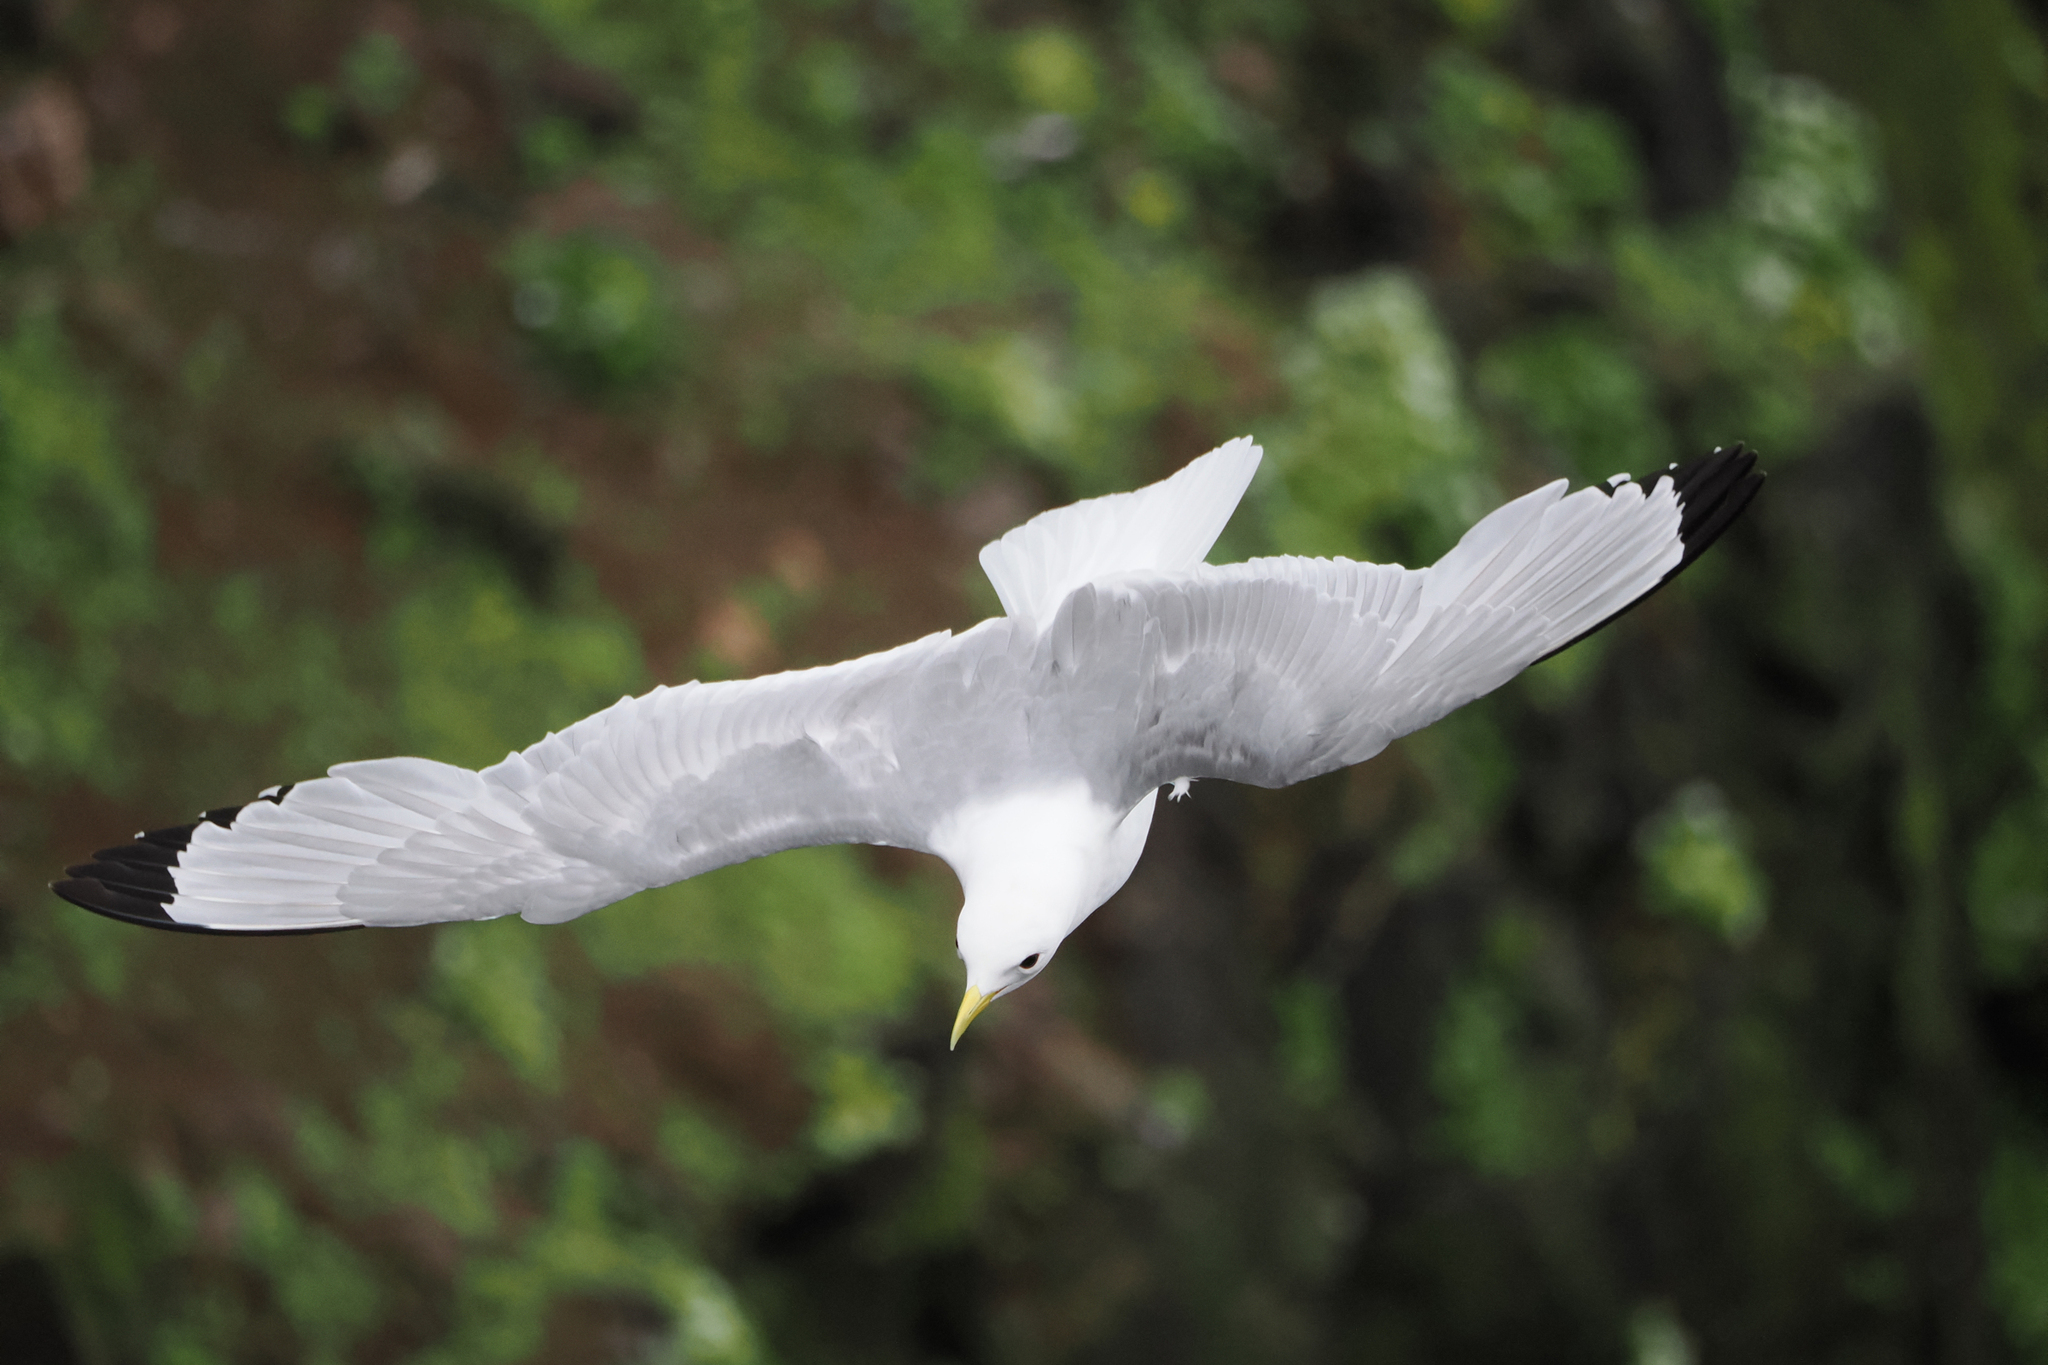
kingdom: Animalia
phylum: Chordata
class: Aves
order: Charadriiformes
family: Laridae
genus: Rissa
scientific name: Rissa tridactyla
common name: Black-legged kittiwake
